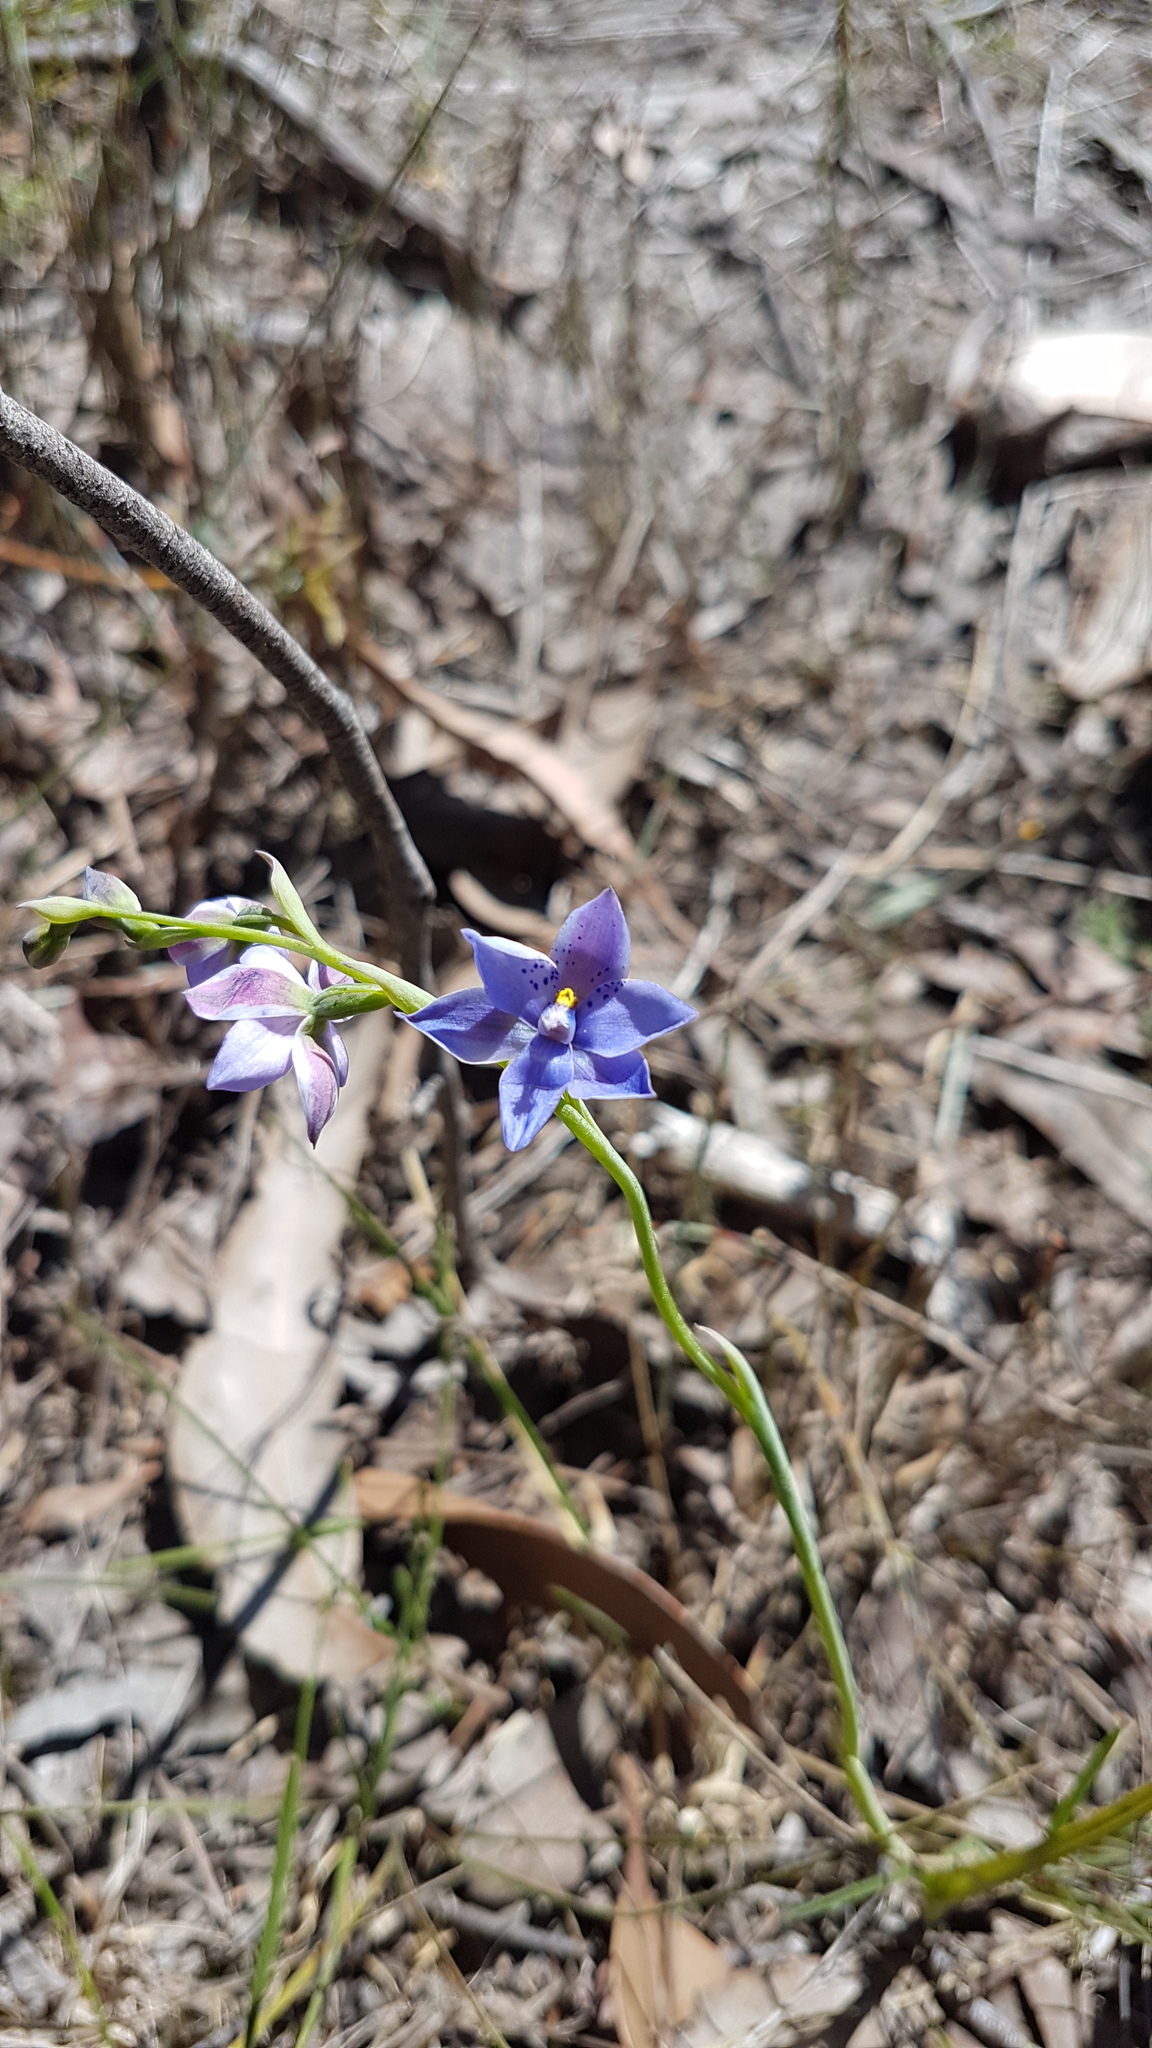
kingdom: Plantae
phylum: Tracheophyta
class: Liliopsida
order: Asparagales
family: Orchidaceae
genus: Thelymitra
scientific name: Thelymitra ixioides
